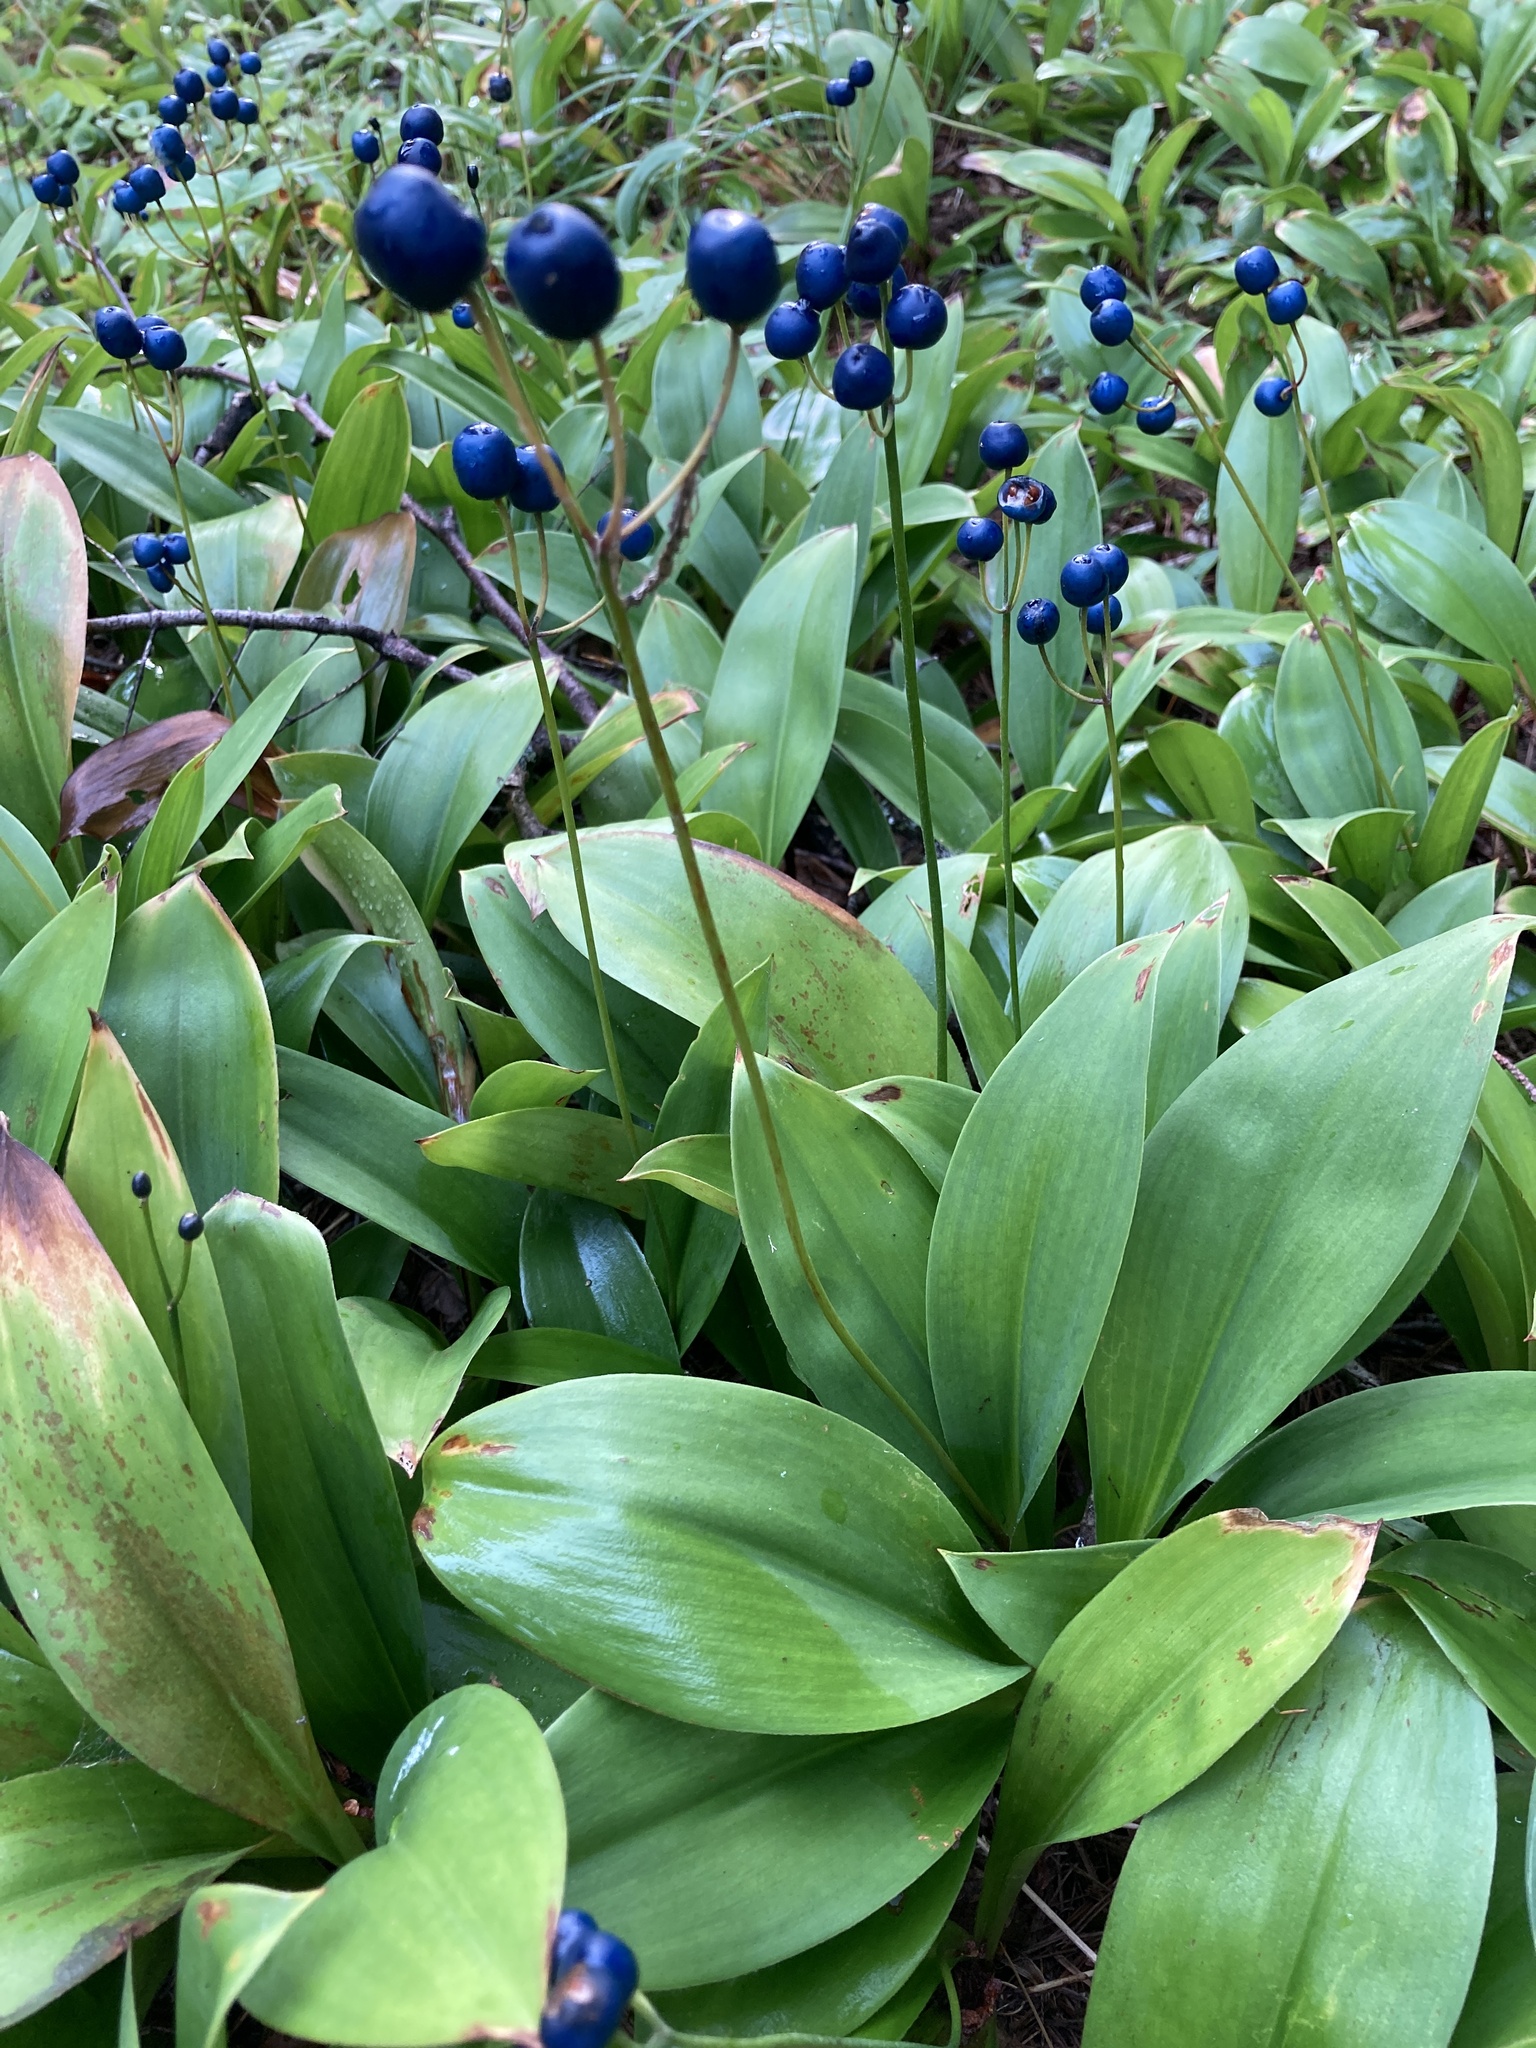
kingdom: Plantae
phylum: Tracheophyta
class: Liliopsida
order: Liliales
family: Liliaceae
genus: Clintonia
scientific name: Clintonia borealis
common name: Yellow clintonia
